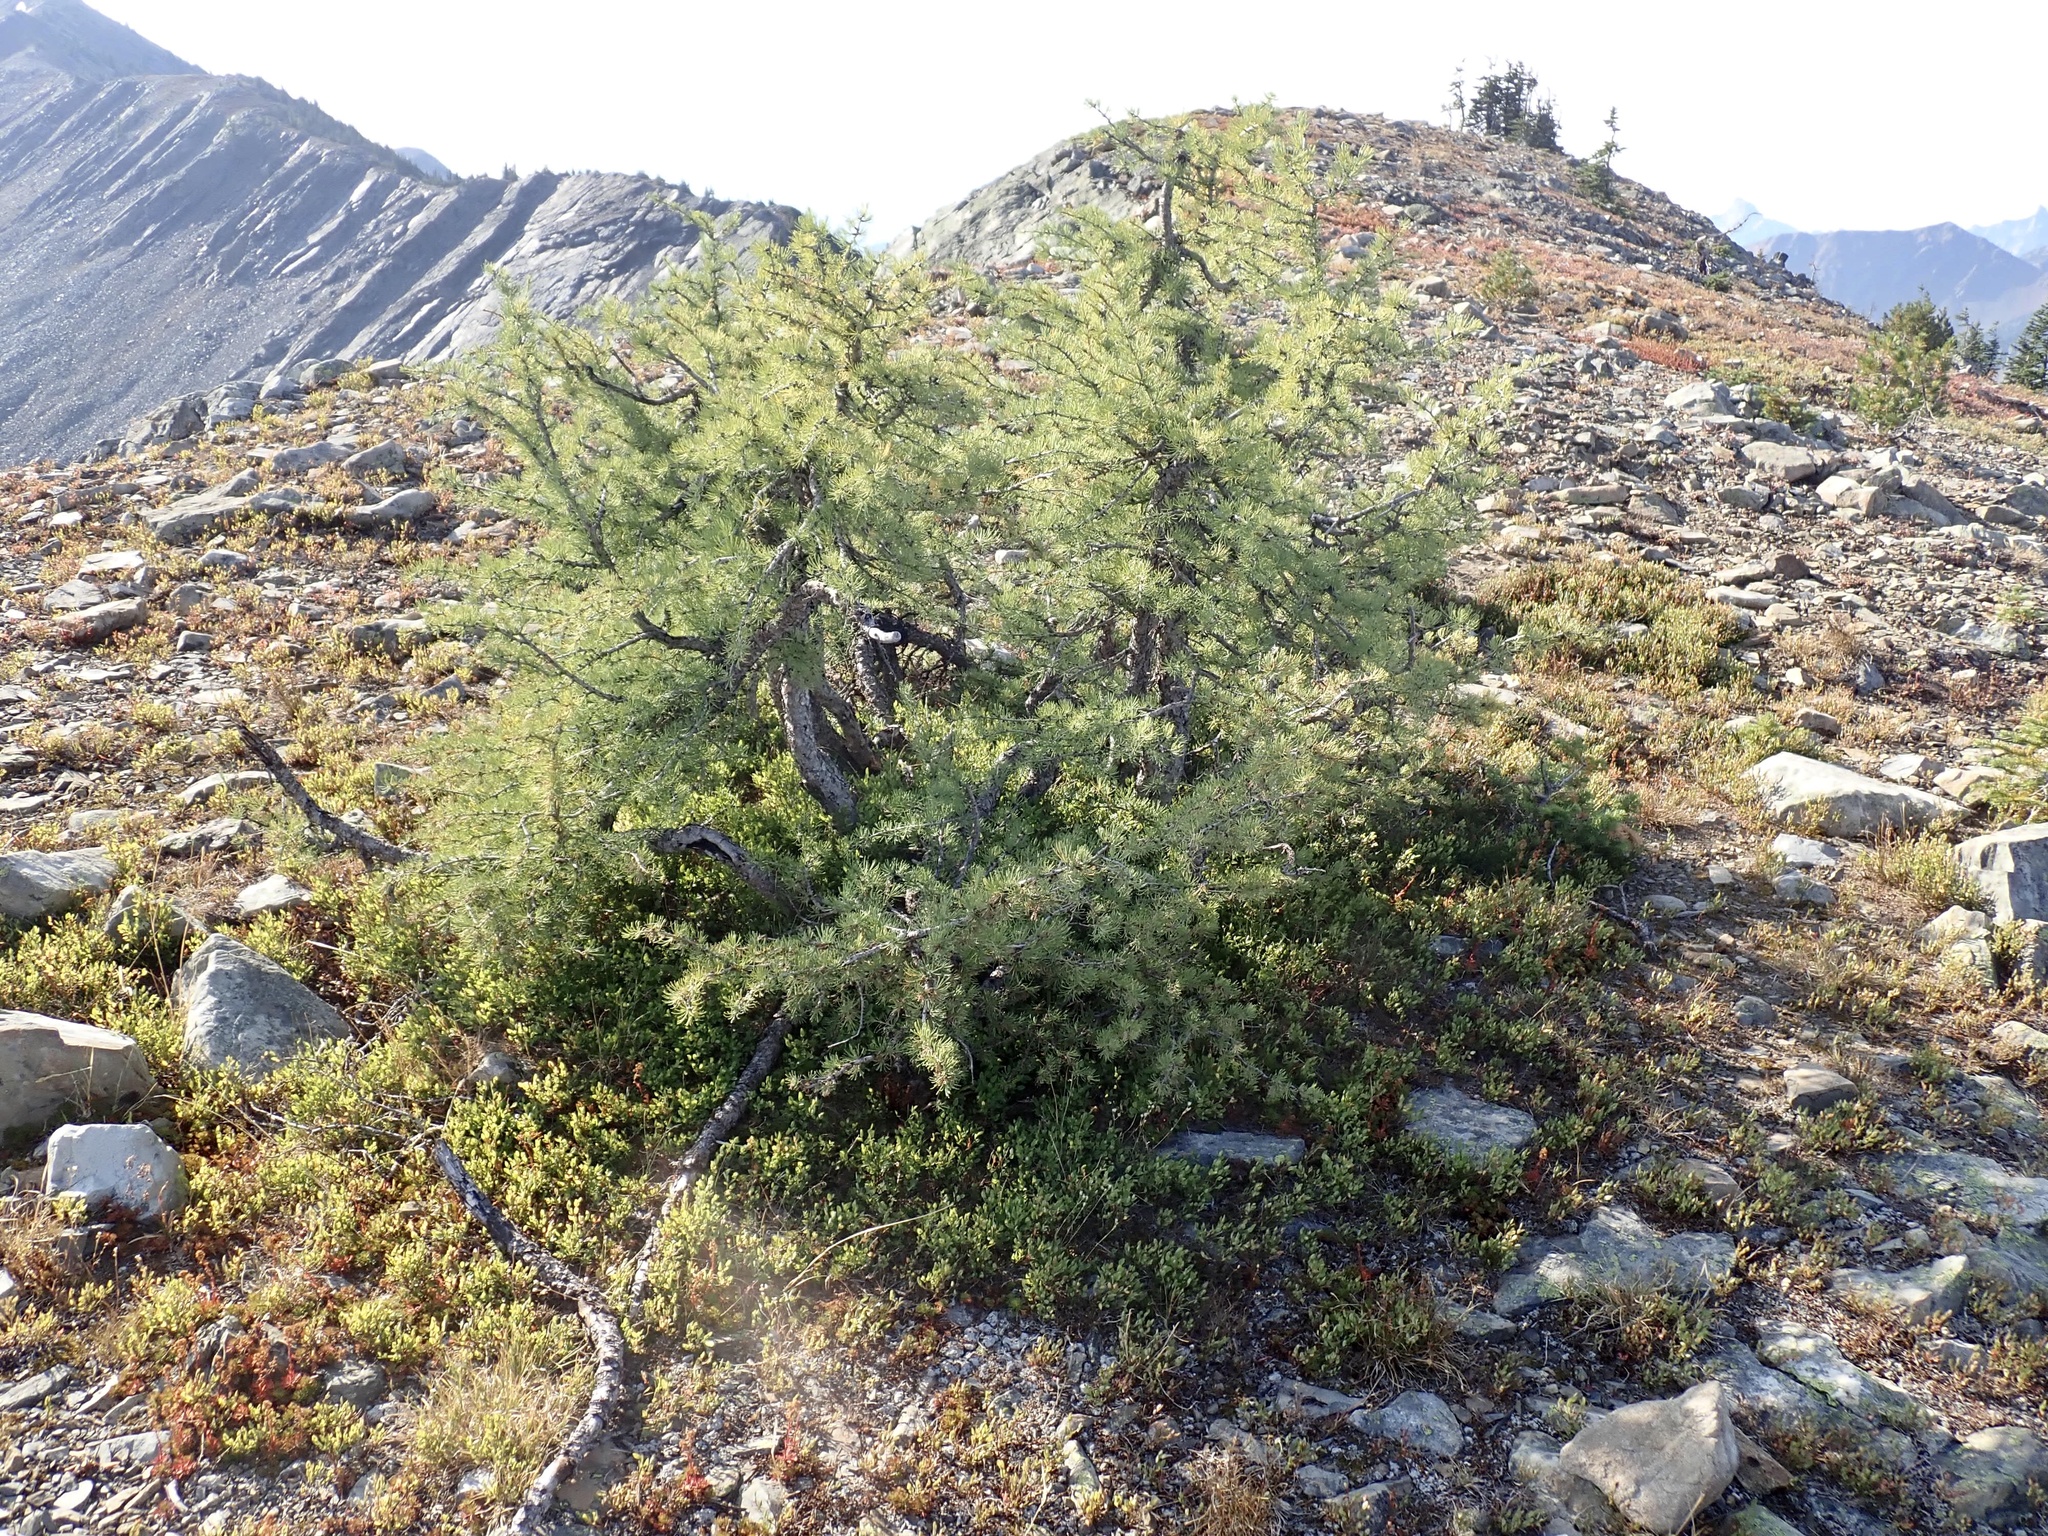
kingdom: Plantae
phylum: Tracheophyta
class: Pinopsida
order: Pinales
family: Pinaceae
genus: Larix
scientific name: Larix lyallii
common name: Alpine larch
